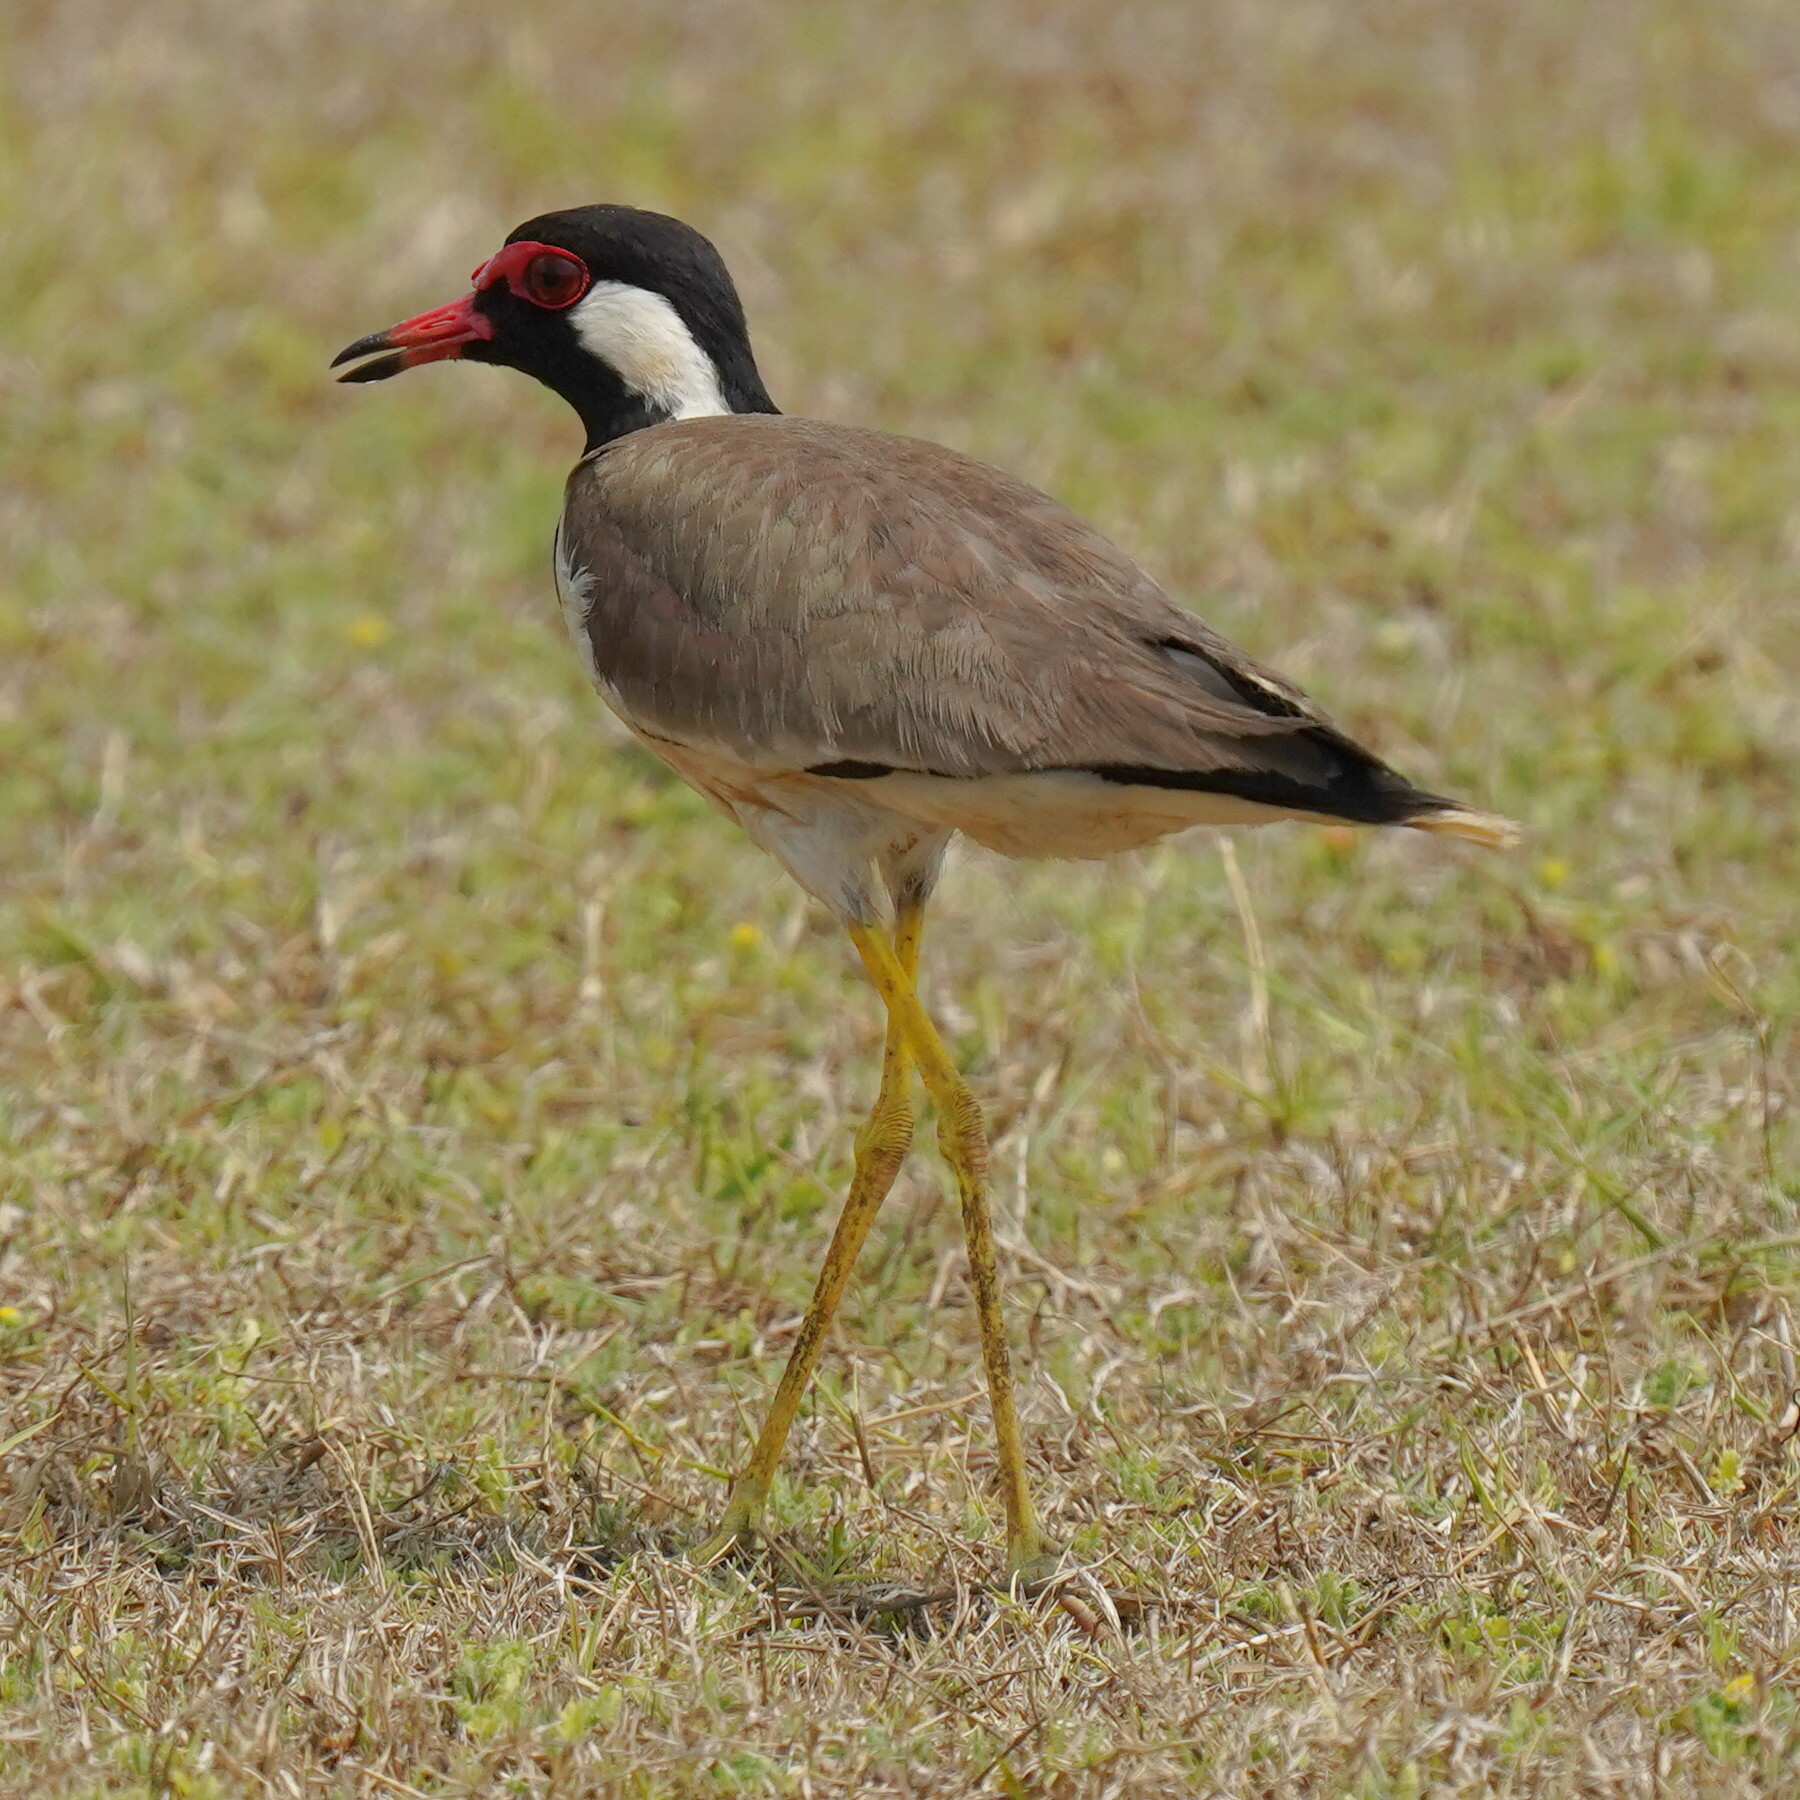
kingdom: Animalia
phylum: Chordata
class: Aves
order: Charadriiformes
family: Charadriidae
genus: Vanellus
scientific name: Vanellus indicus
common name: Red-wattled lapwing
